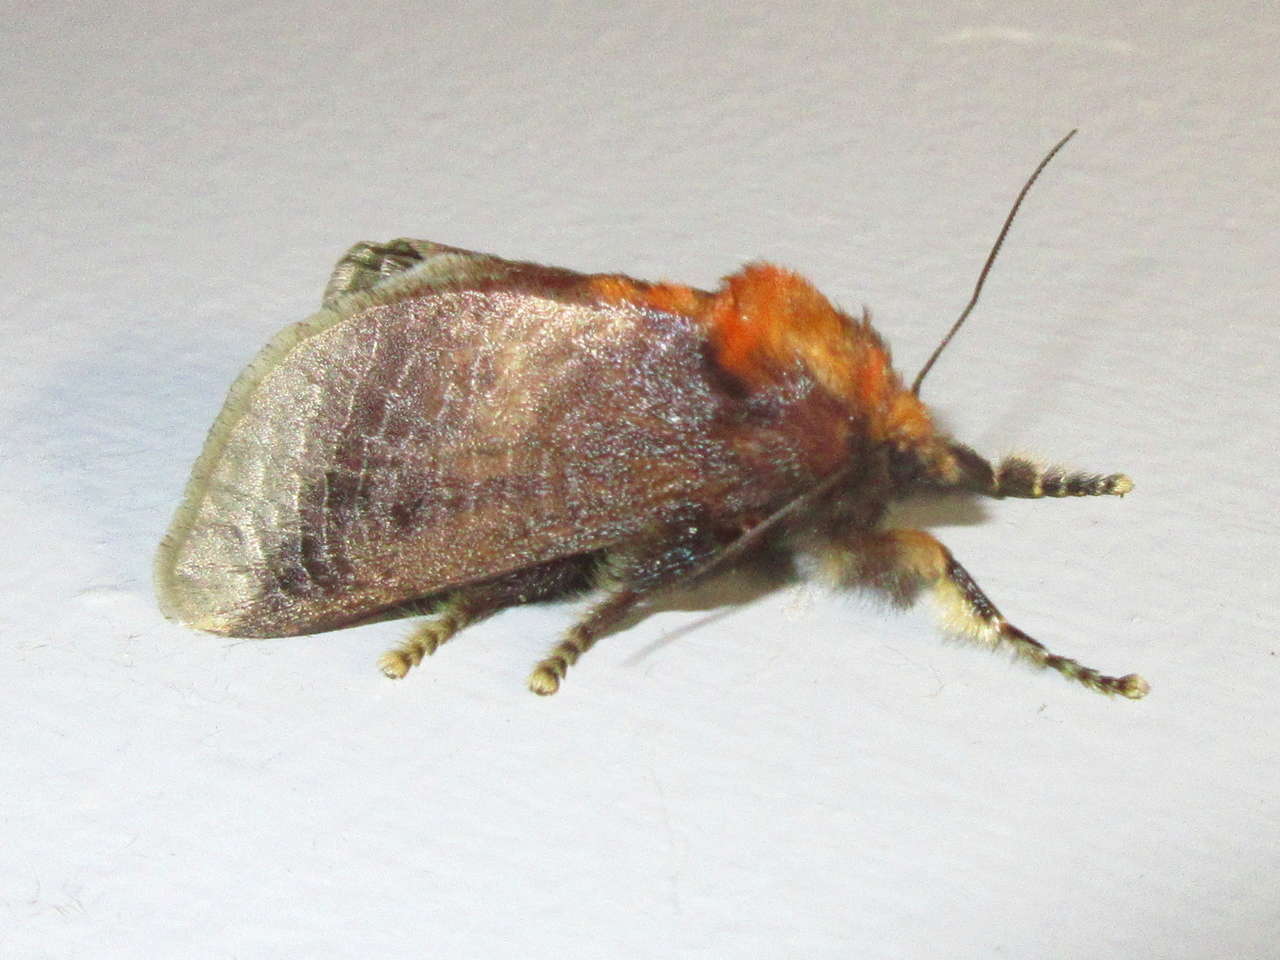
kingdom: Animalia
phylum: Arthropoda
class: Insecta
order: Lepidoptera
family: Limacodidae
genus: Doratifera
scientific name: Doratifera oxleyi
